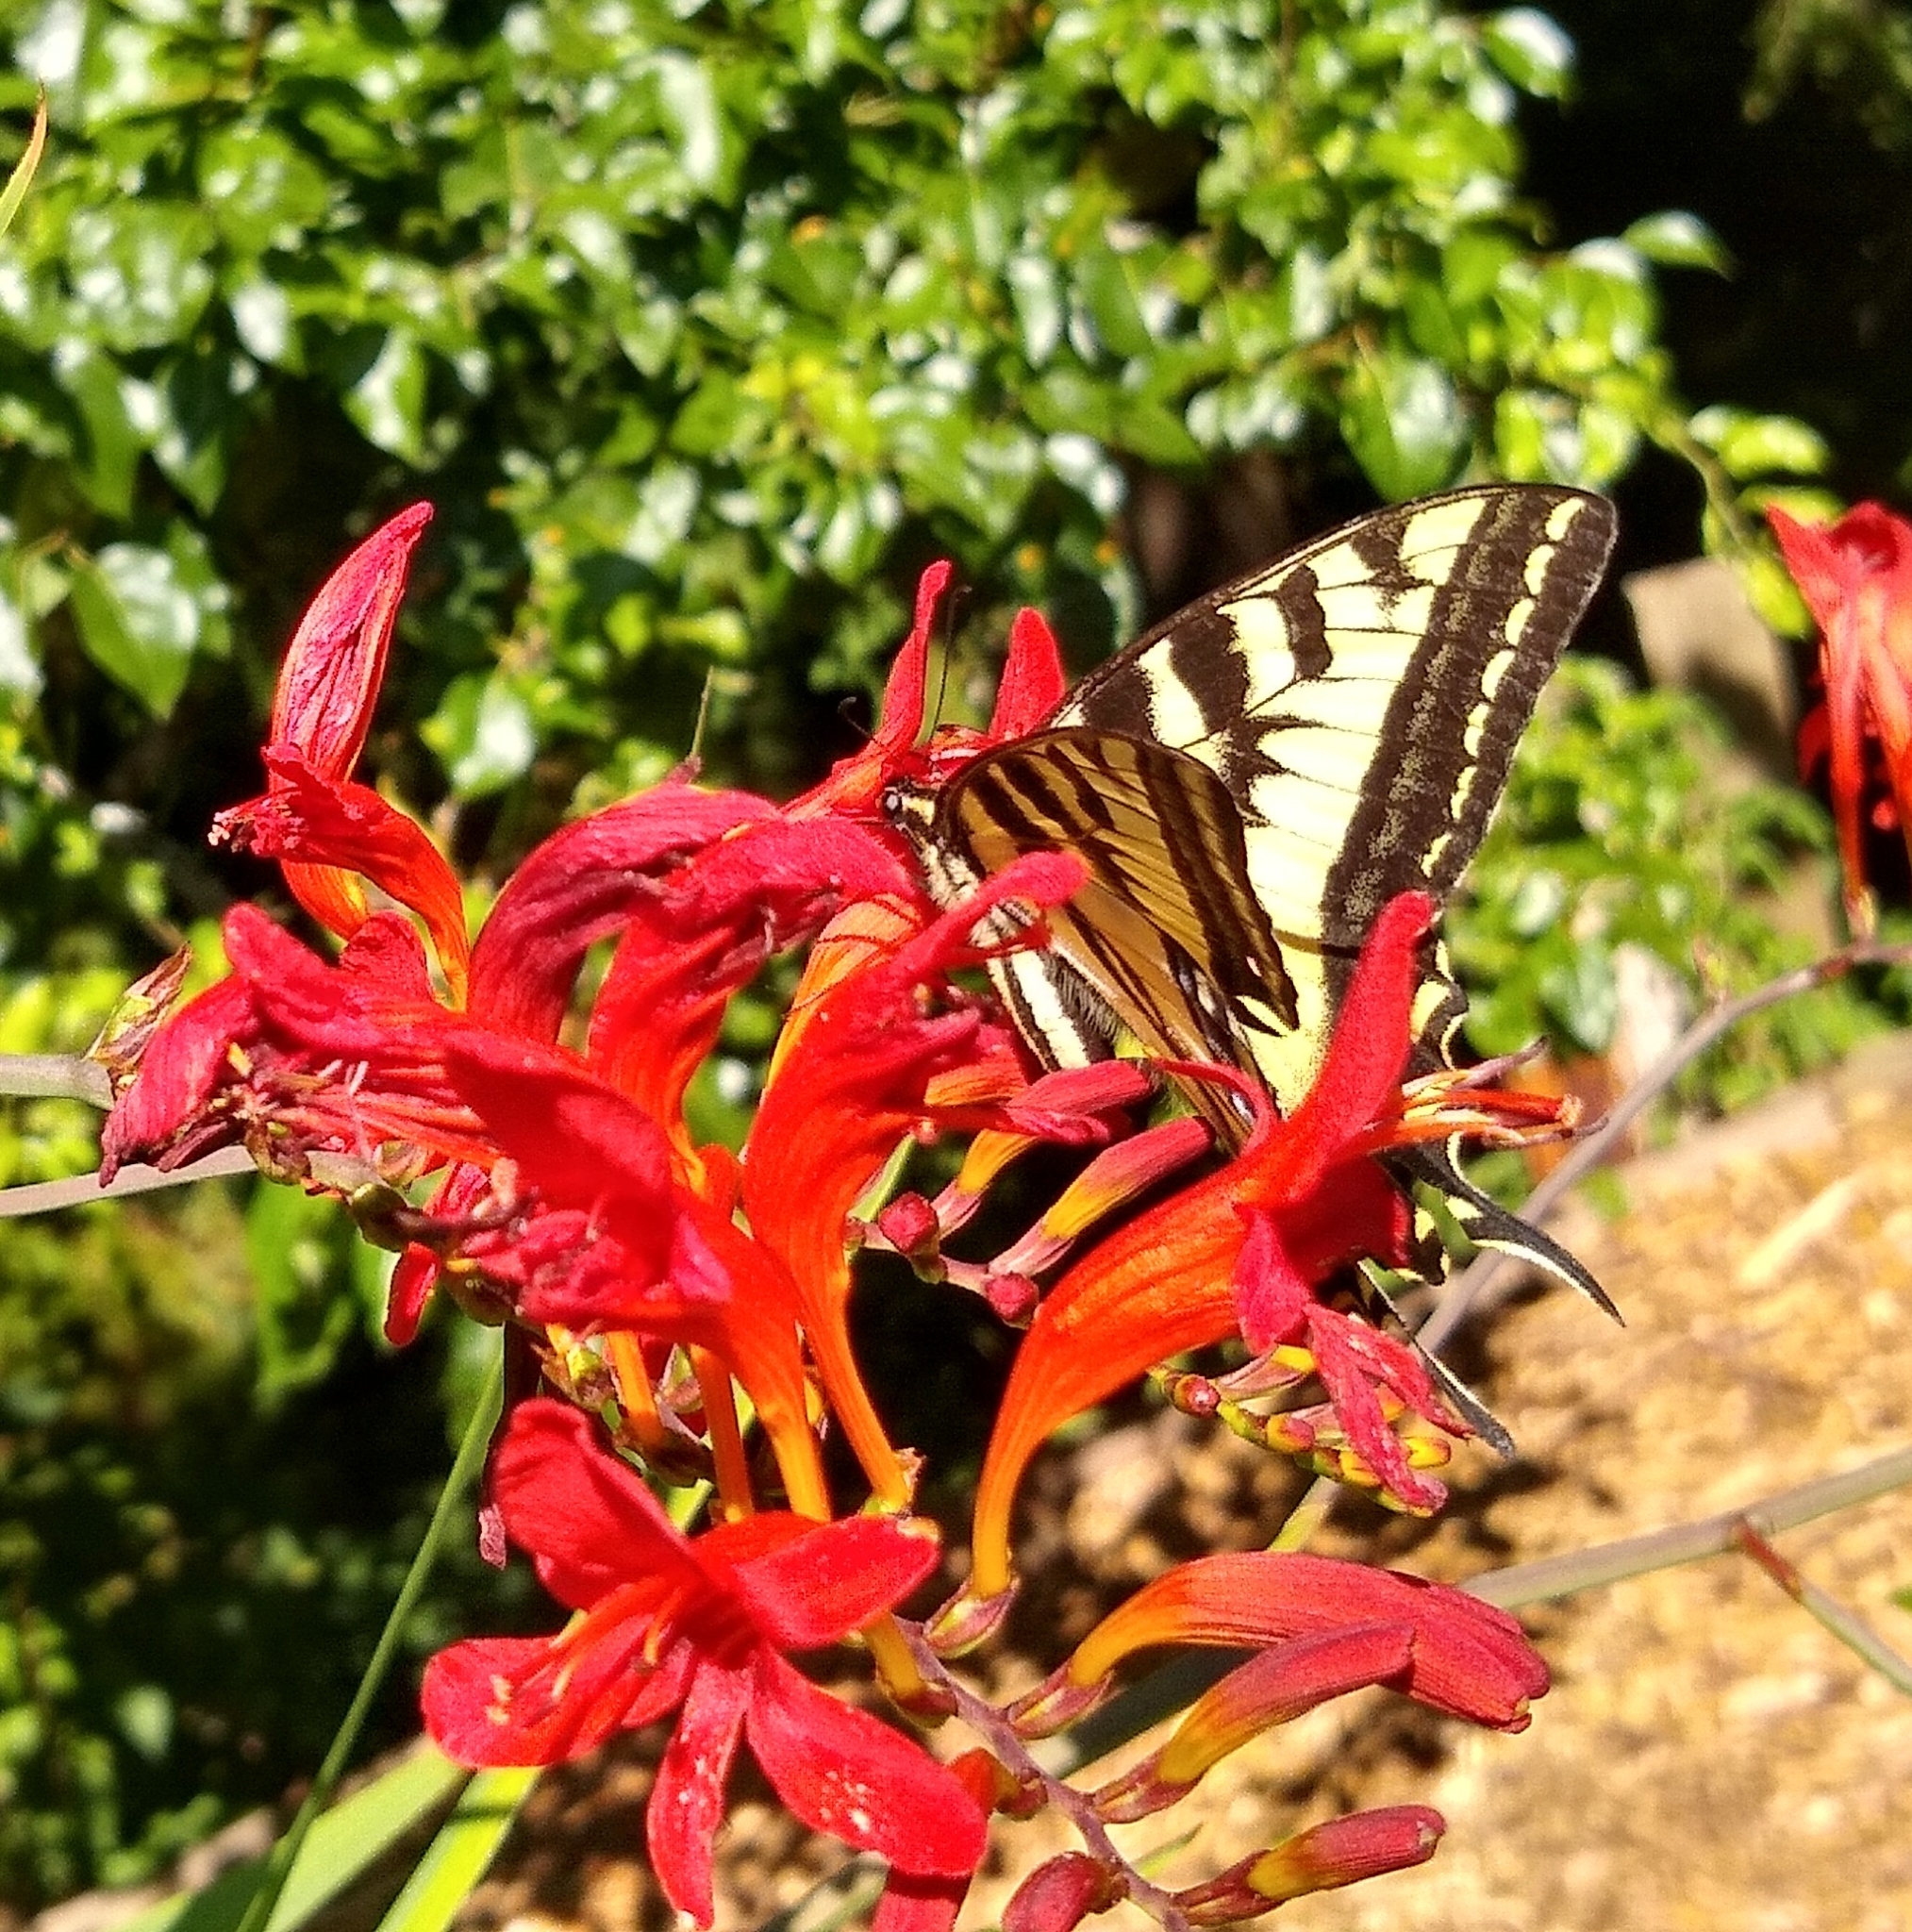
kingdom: Animalia
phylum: Arthropoda
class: Insecta
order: Lepidoptera
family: Papilionidae
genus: Papilio
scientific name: Papilio rutulus
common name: Western tiger swallowtail
